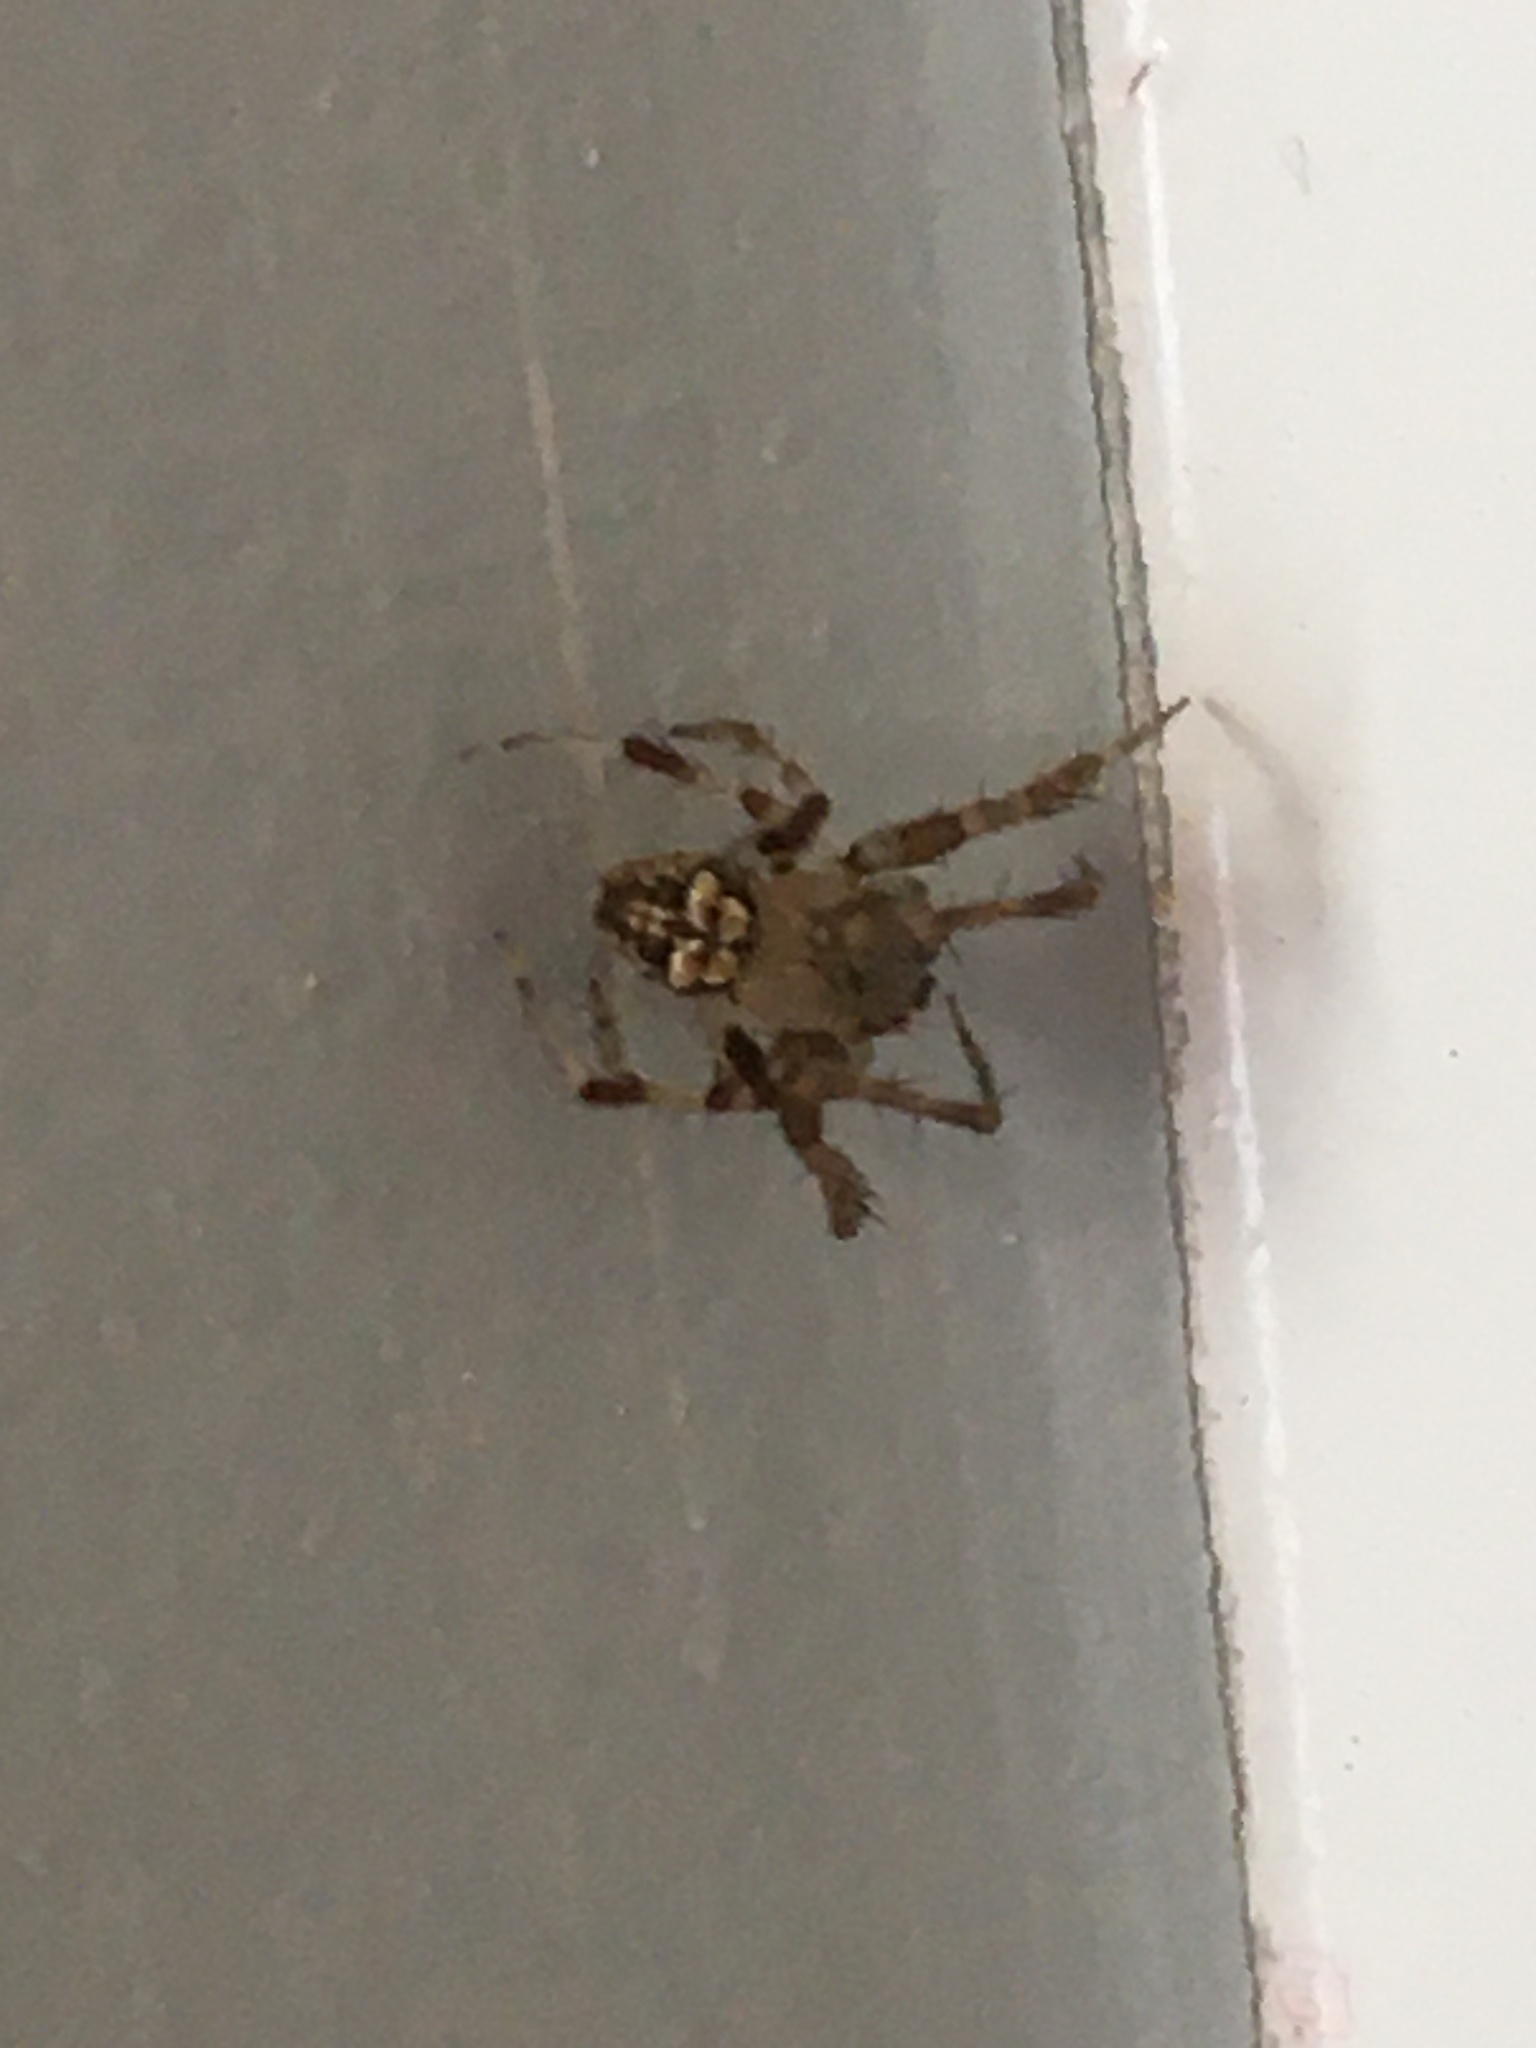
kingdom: Animalia
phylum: Arthropoda
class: Arachnida
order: Araneae
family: Araneidae
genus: Araneus
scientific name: Araneus pegnia
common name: Orb weavers
